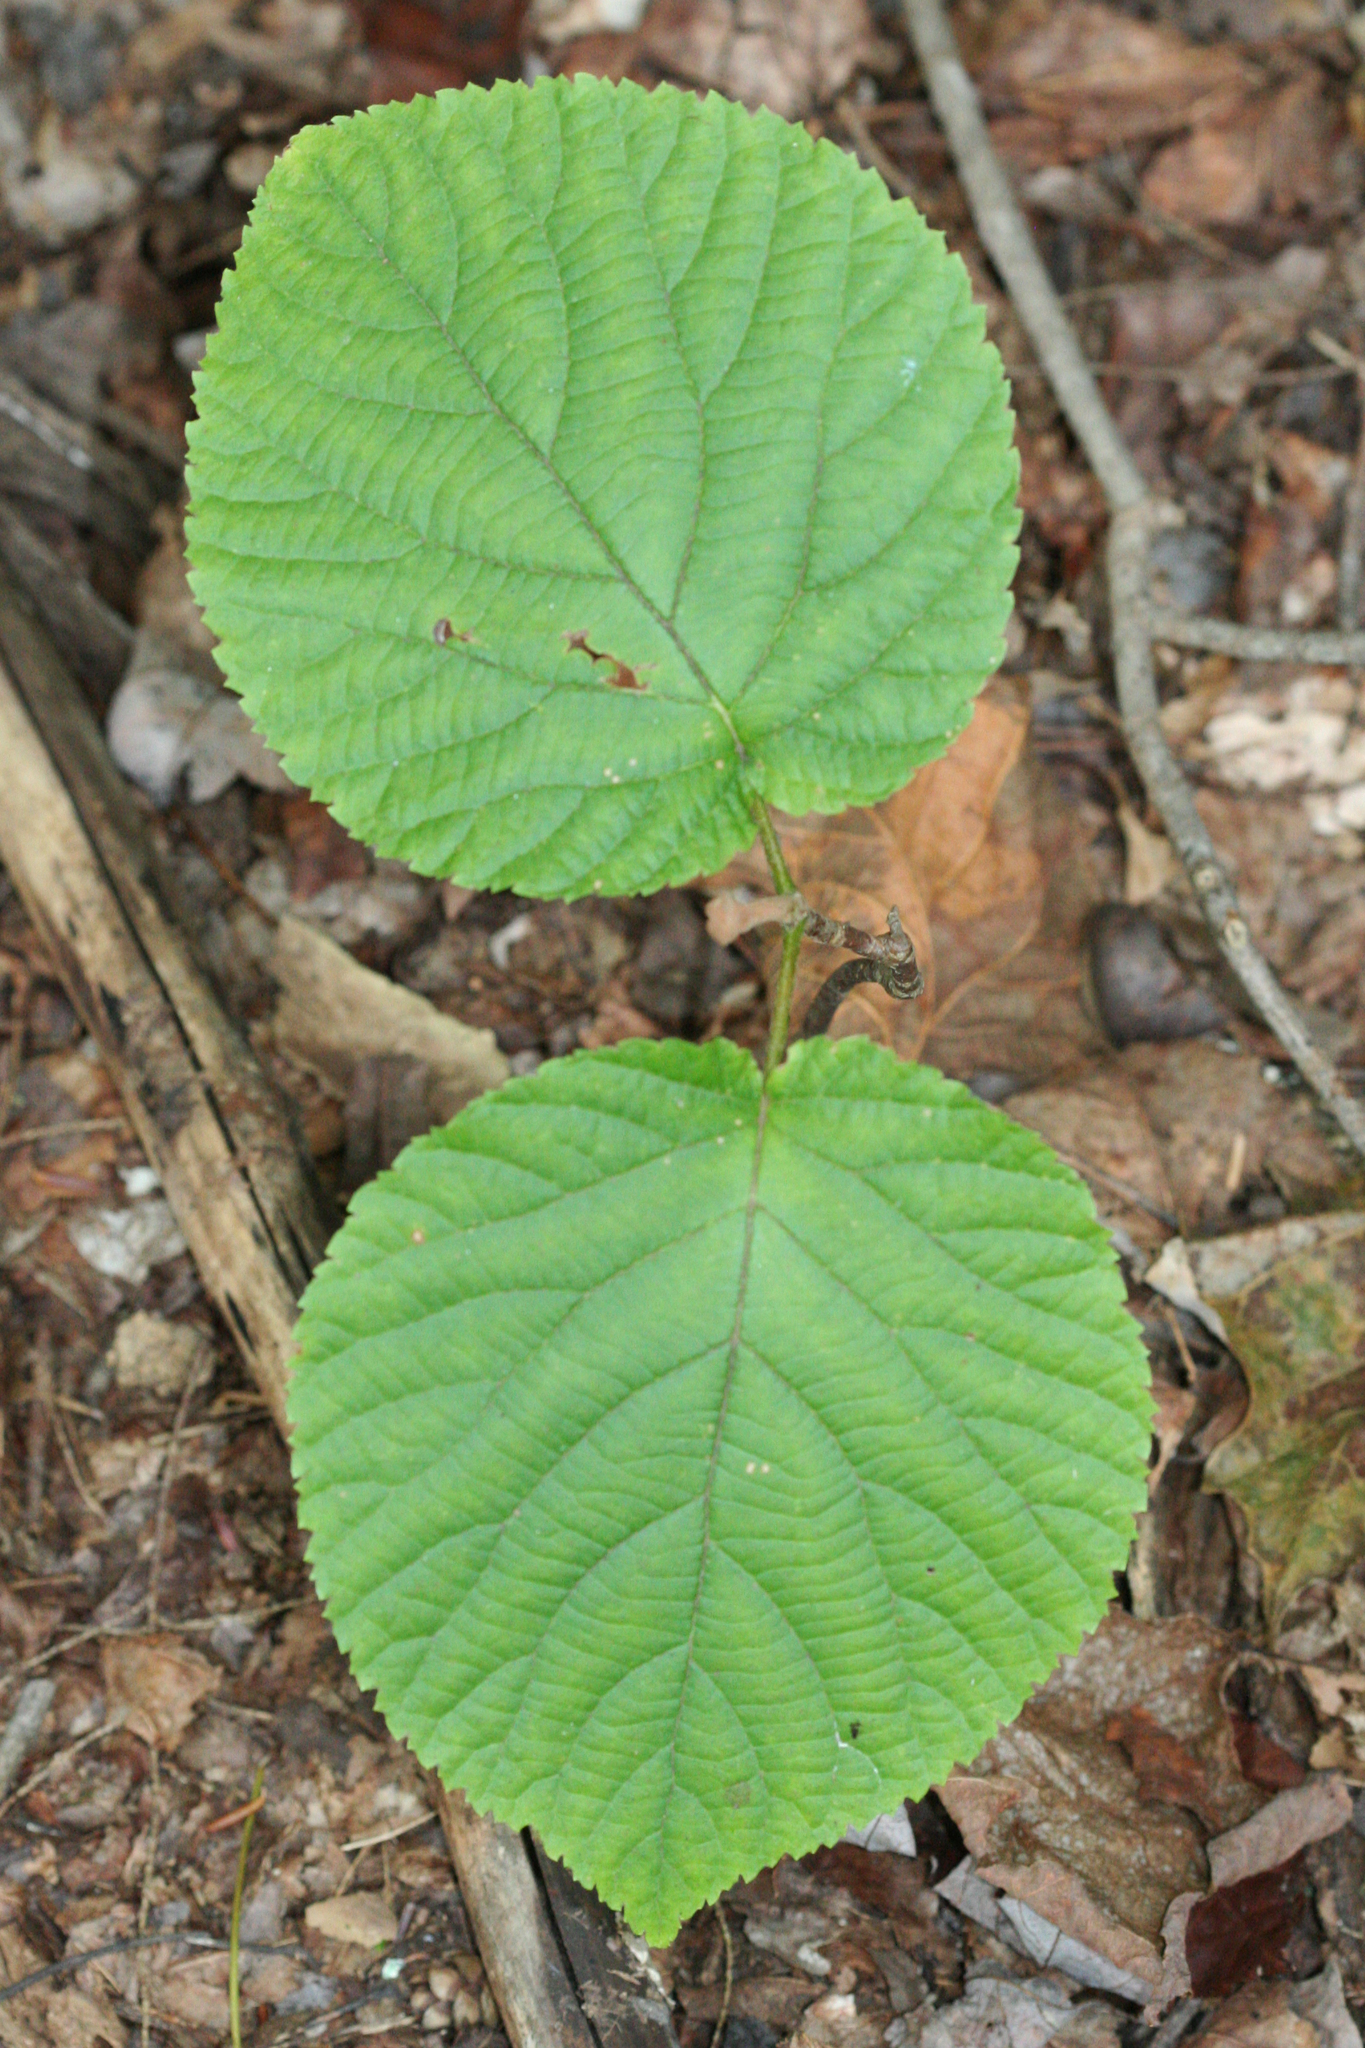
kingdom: Plantae
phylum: Tracheophyta
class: Magnoliopsida
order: Dipsacales
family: Viburnaceae
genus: Viburnum
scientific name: Viburnum lantanoides
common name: Hobblebush
